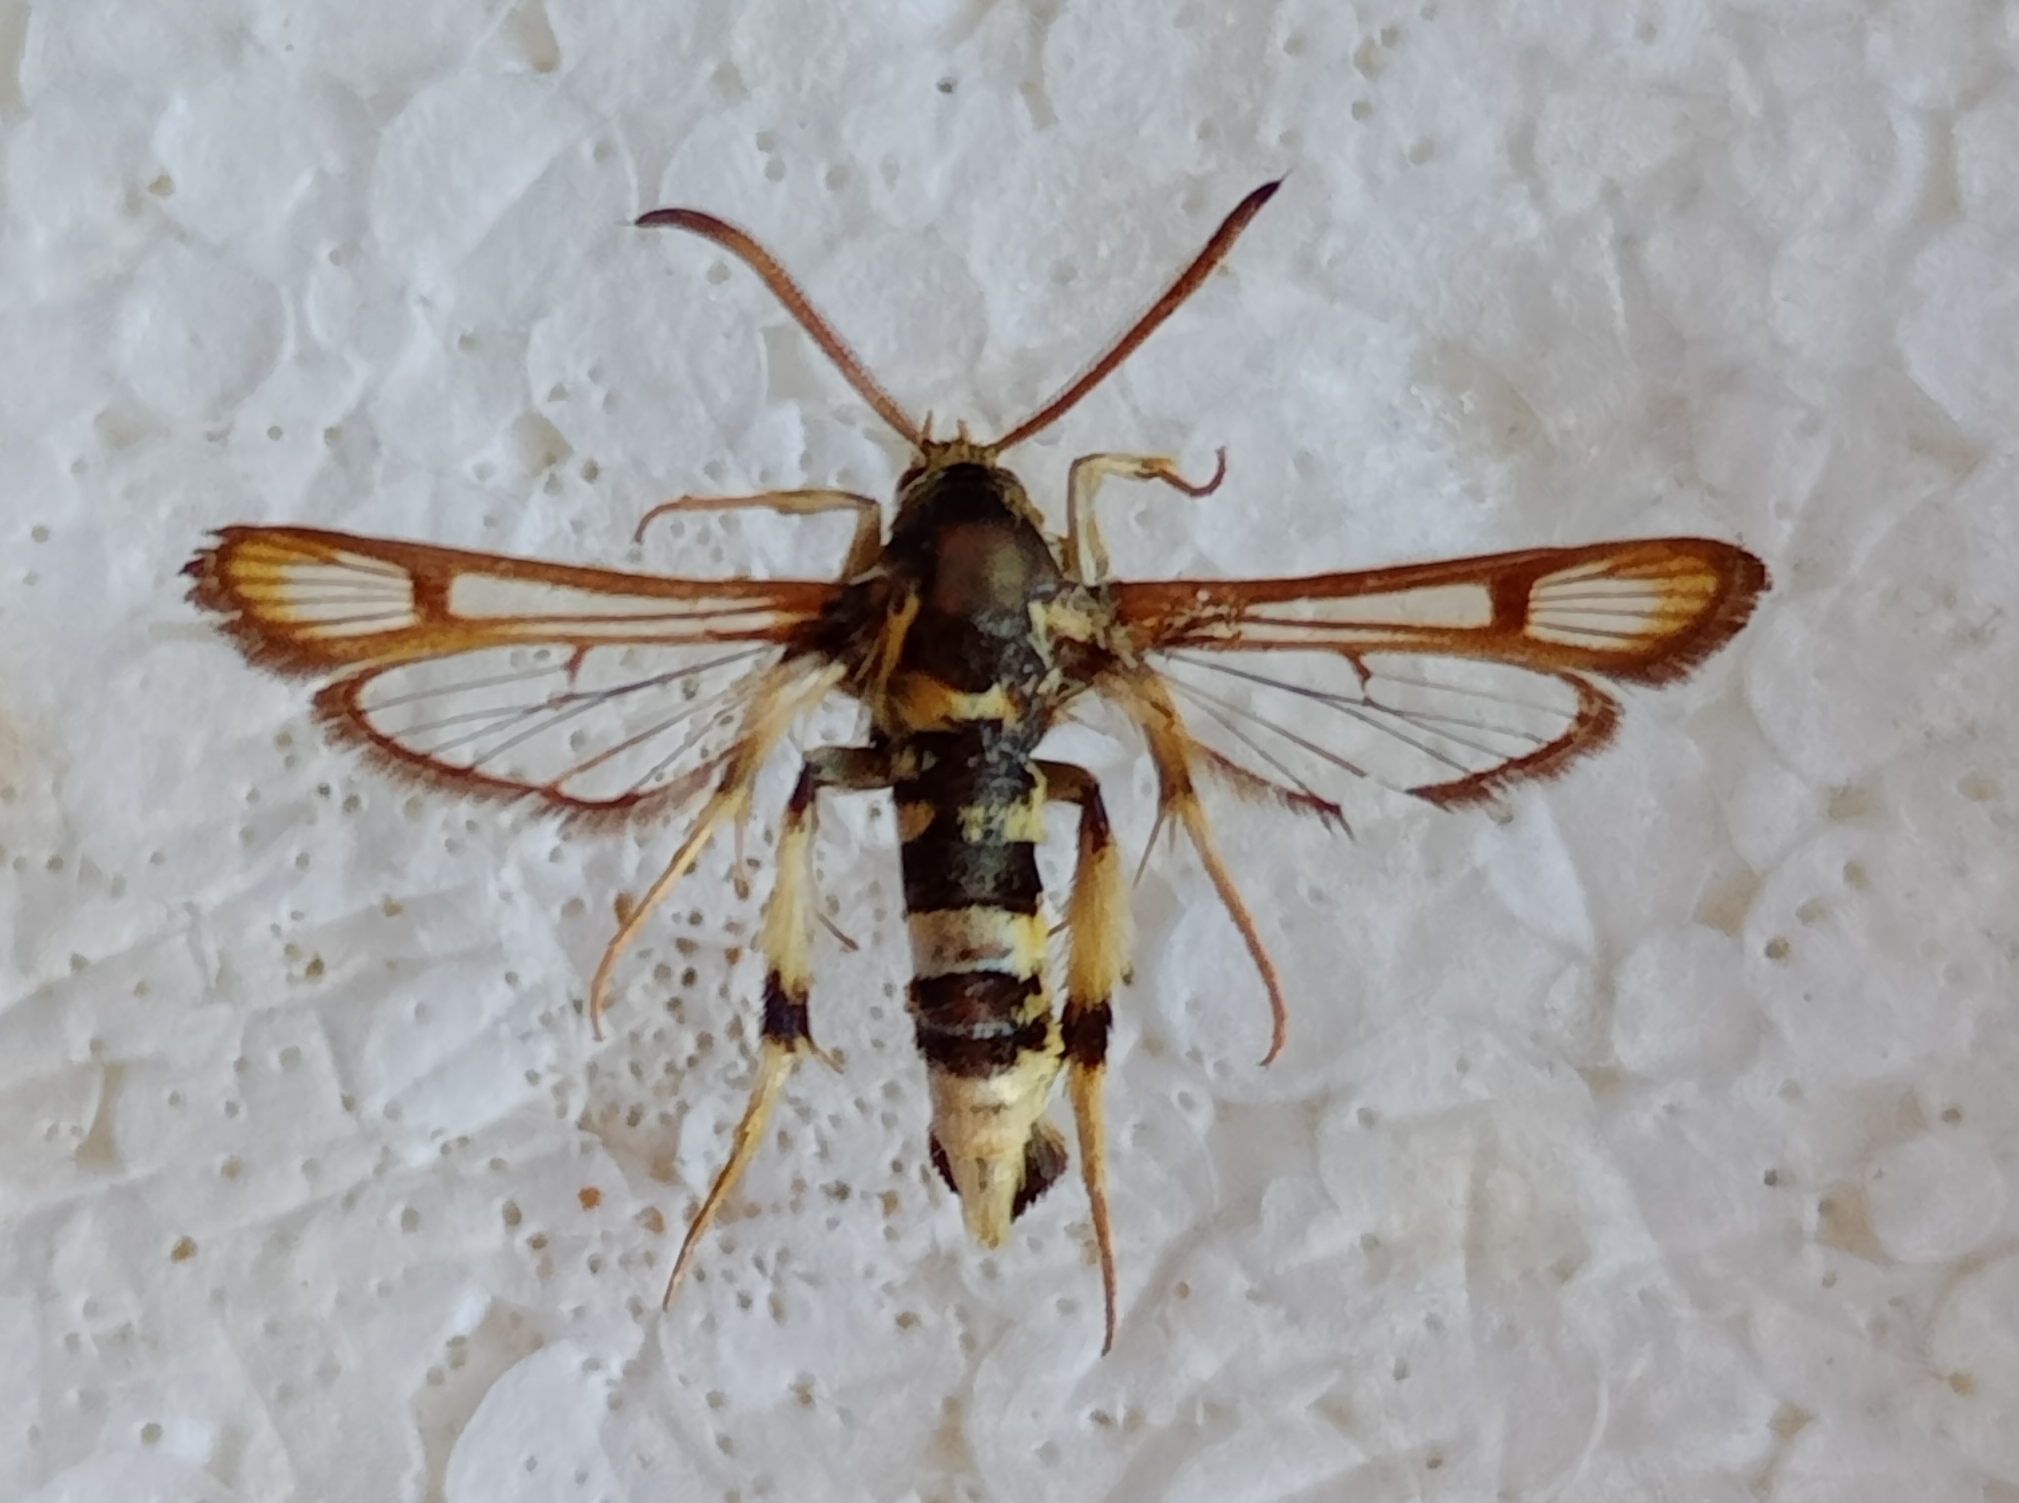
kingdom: Animalia
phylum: Arthropoda
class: Insecta
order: Lepidoptera
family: Sesiidae
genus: Chamaesphecia
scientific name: Chamaesphecia proximata
